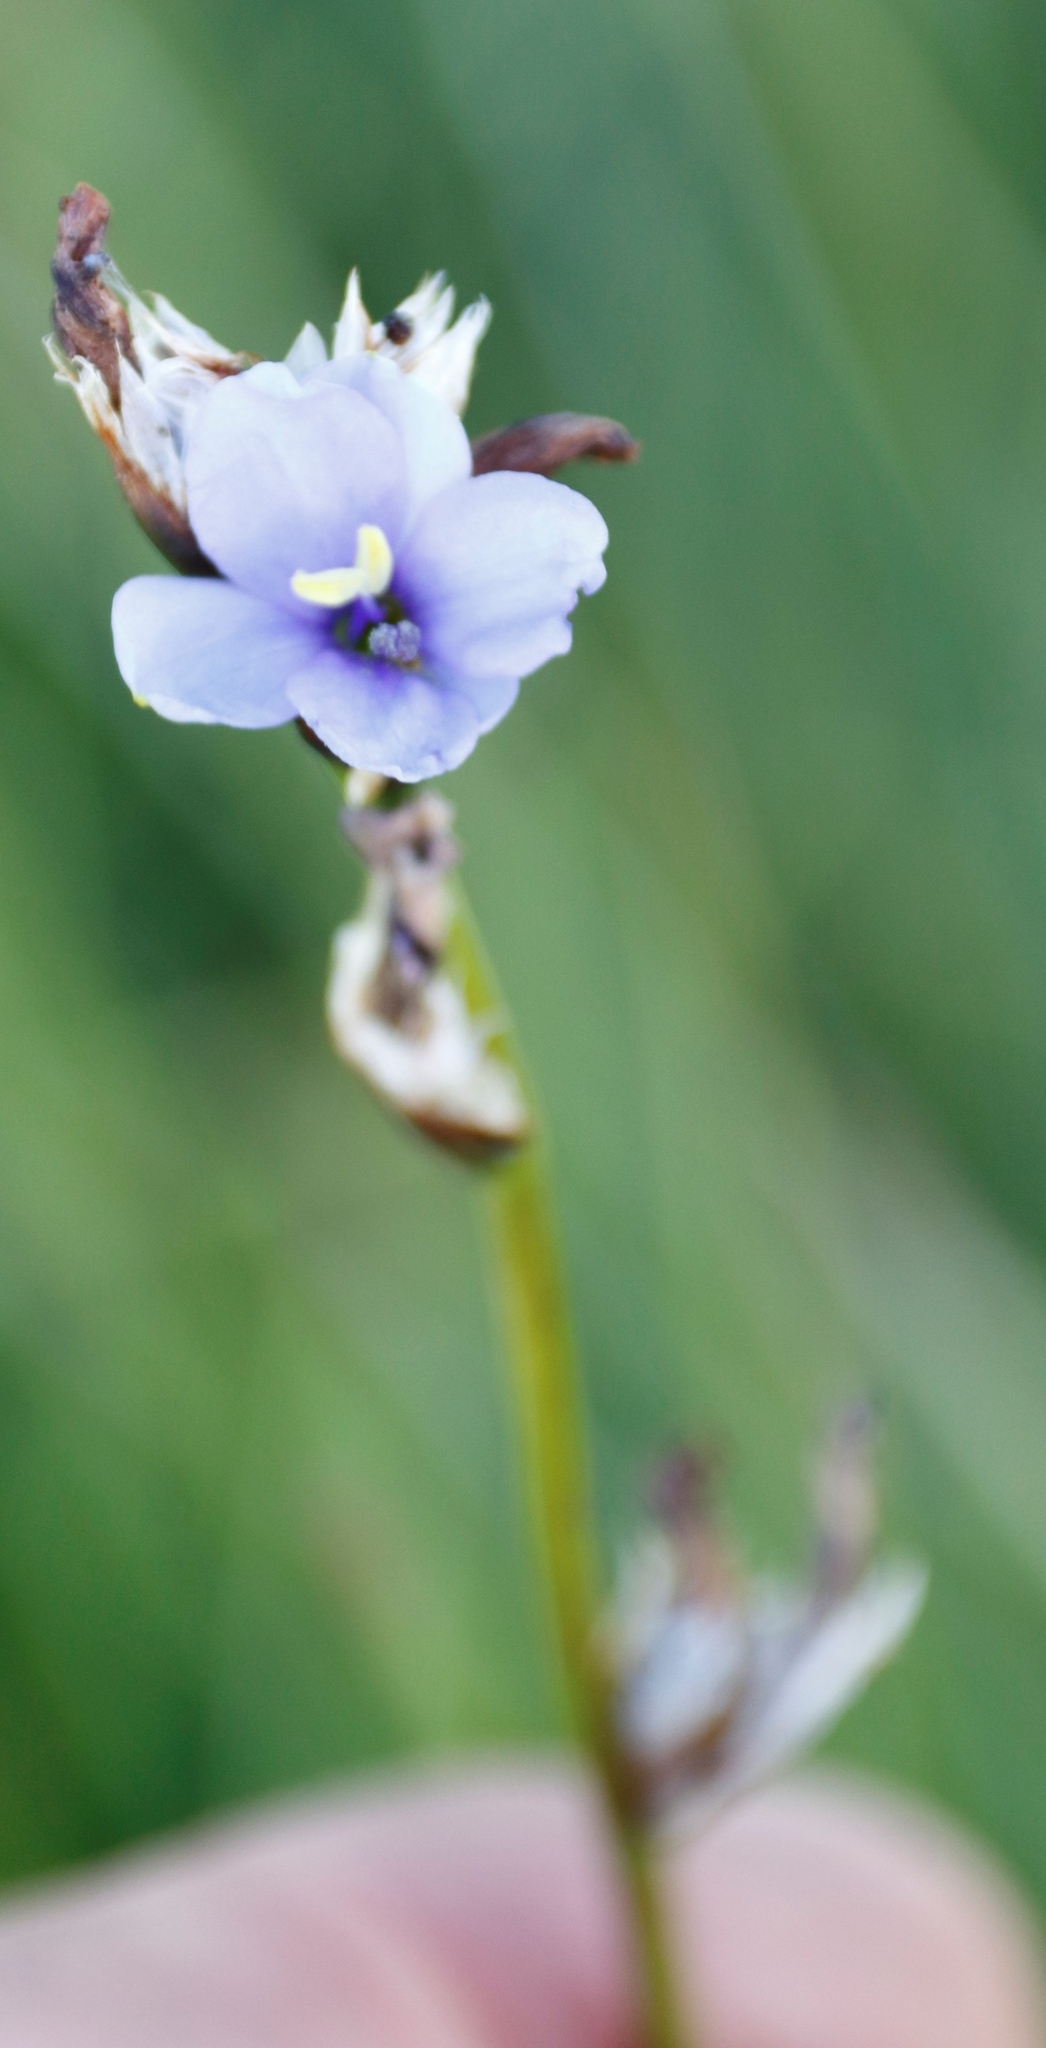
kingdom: Plantae
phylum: Tracheophyta
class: Liliopsida
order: Asparagales
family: Iridaceae
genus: Aristea
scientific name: Aristea torulosa
